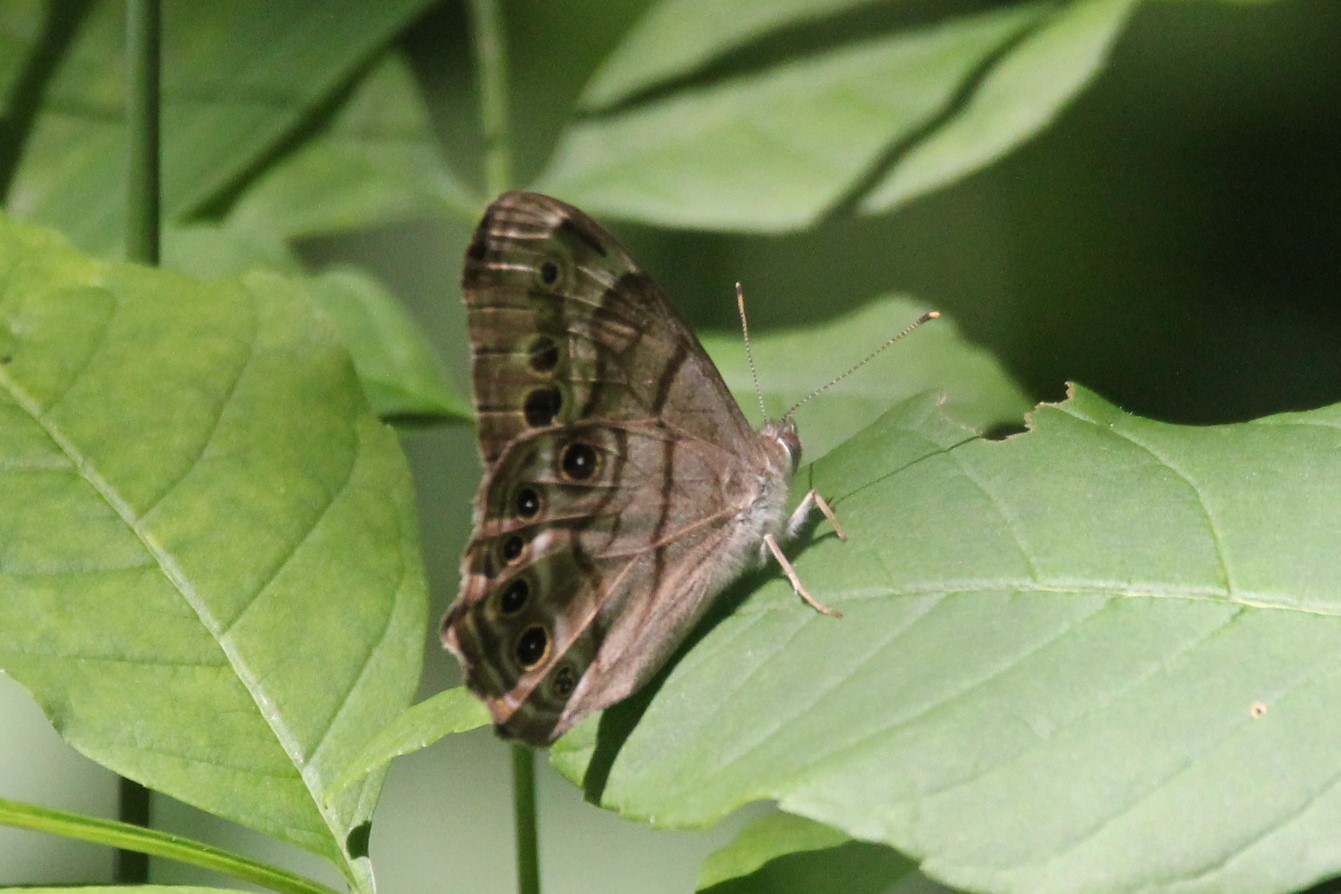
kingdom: Animalia
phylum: Arthropoda
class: Insecta
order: Lepidoptera
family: Nymphalidae
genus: Lethe
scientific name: Lethe anthedon
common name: Northern pearly-eye
